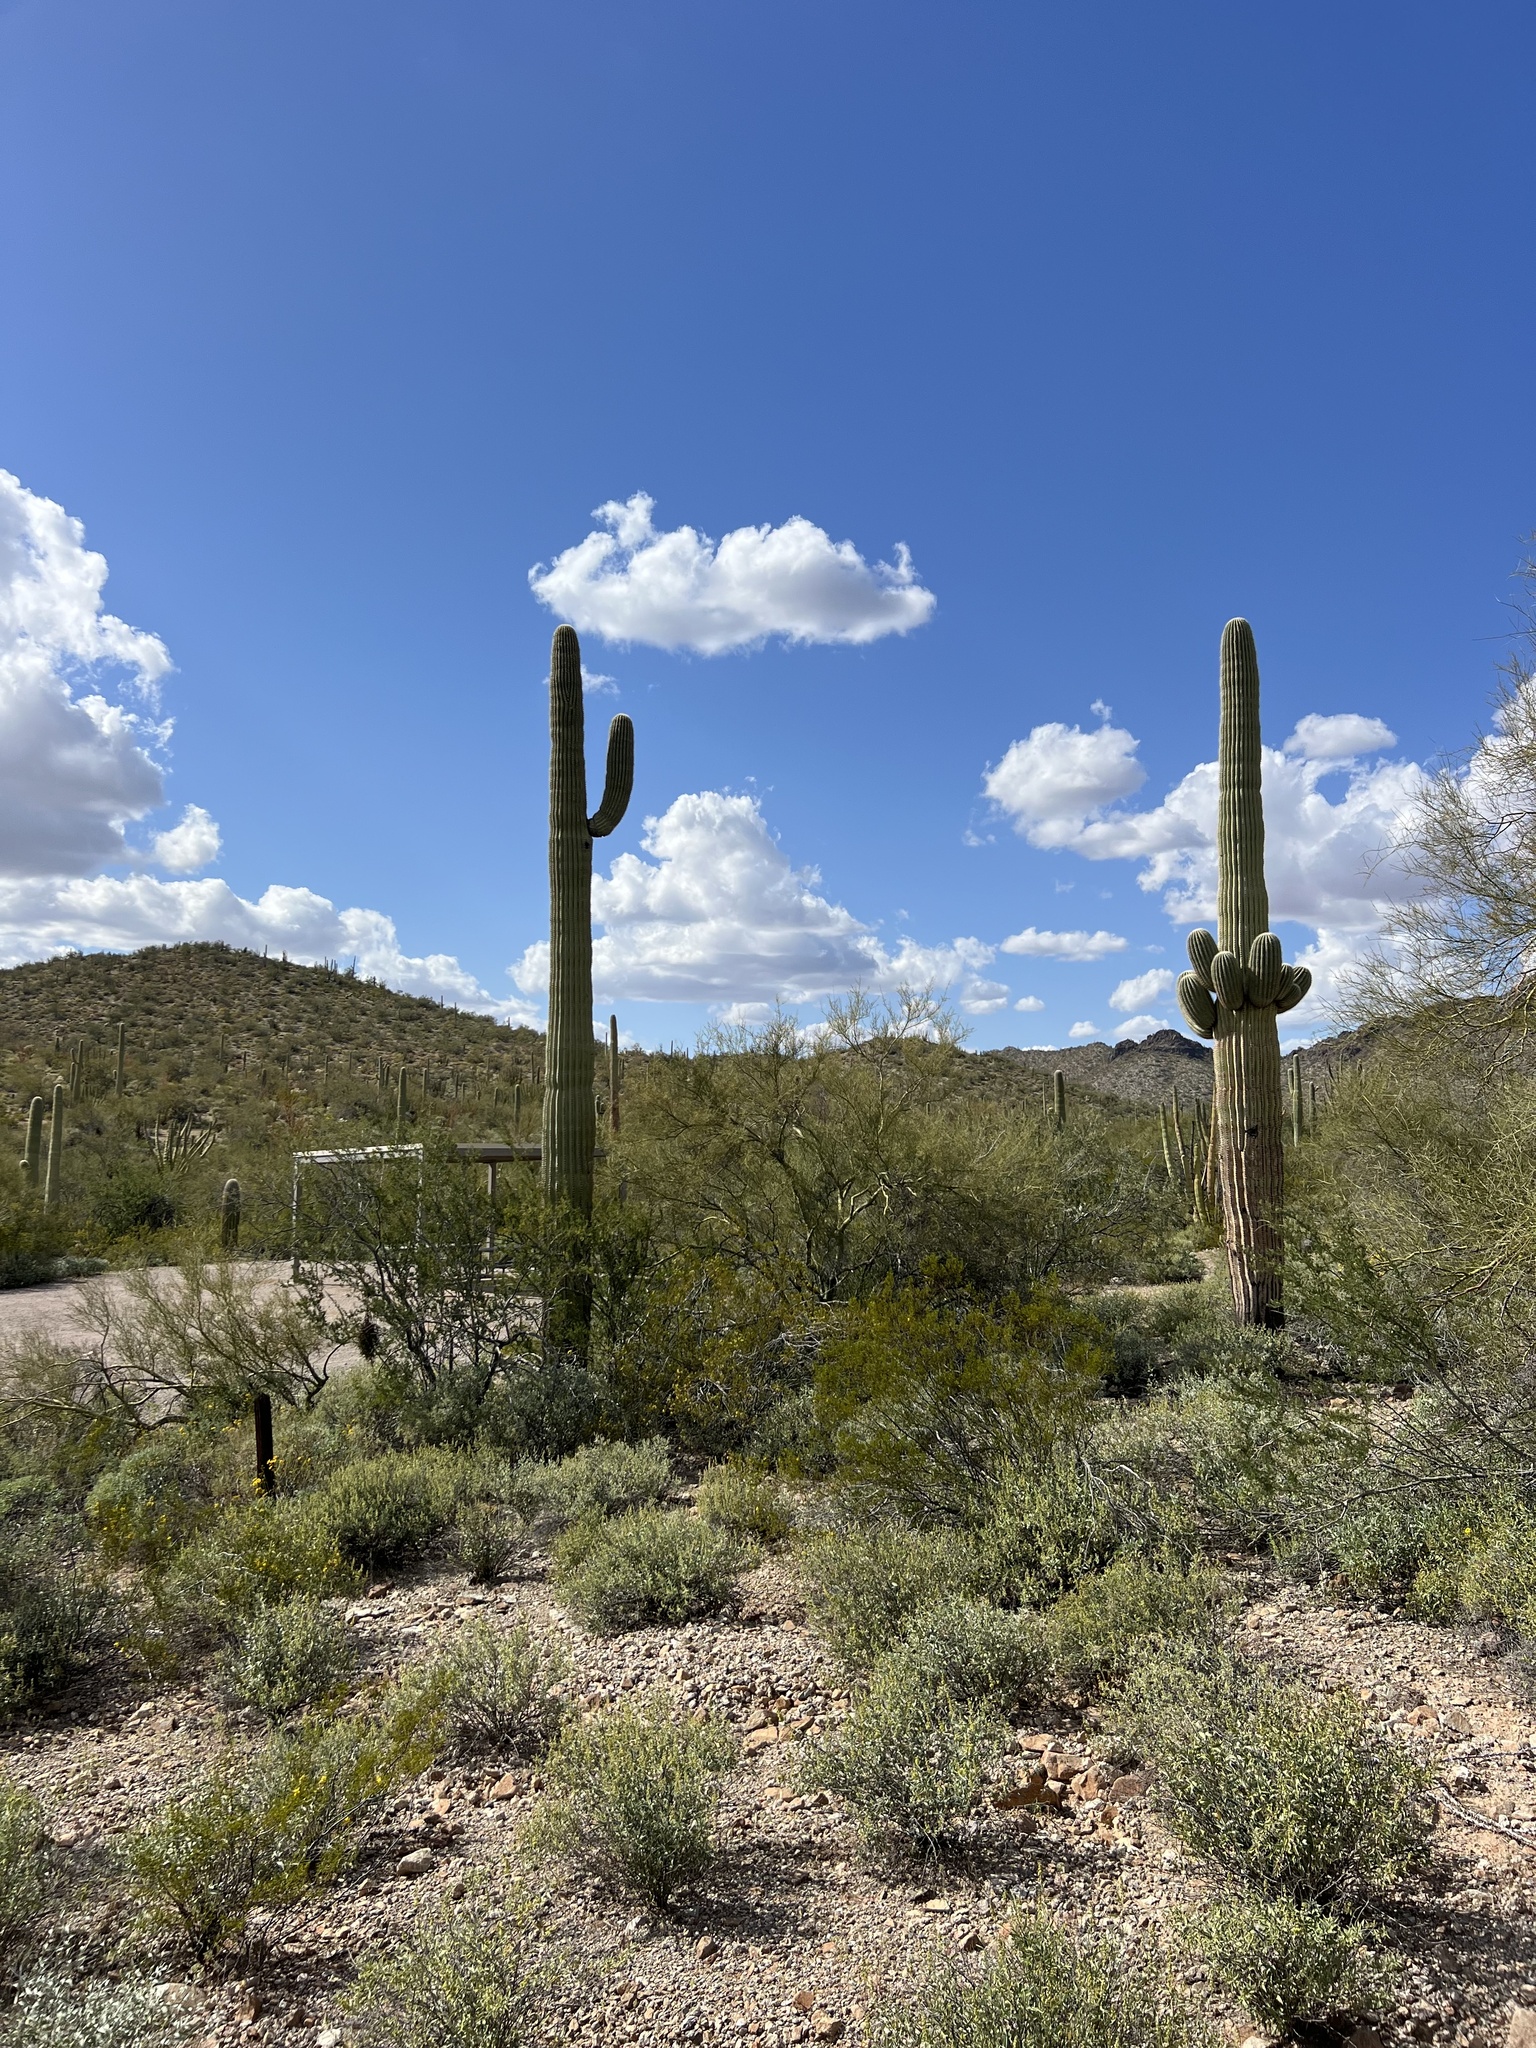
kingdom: Plantae
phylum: Tracheophyta
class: Magnoliopsida
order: Caryophyllales
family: Cactaceae
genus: Carnegiea
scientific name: Carnegiea gigantea
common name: Saguaro
